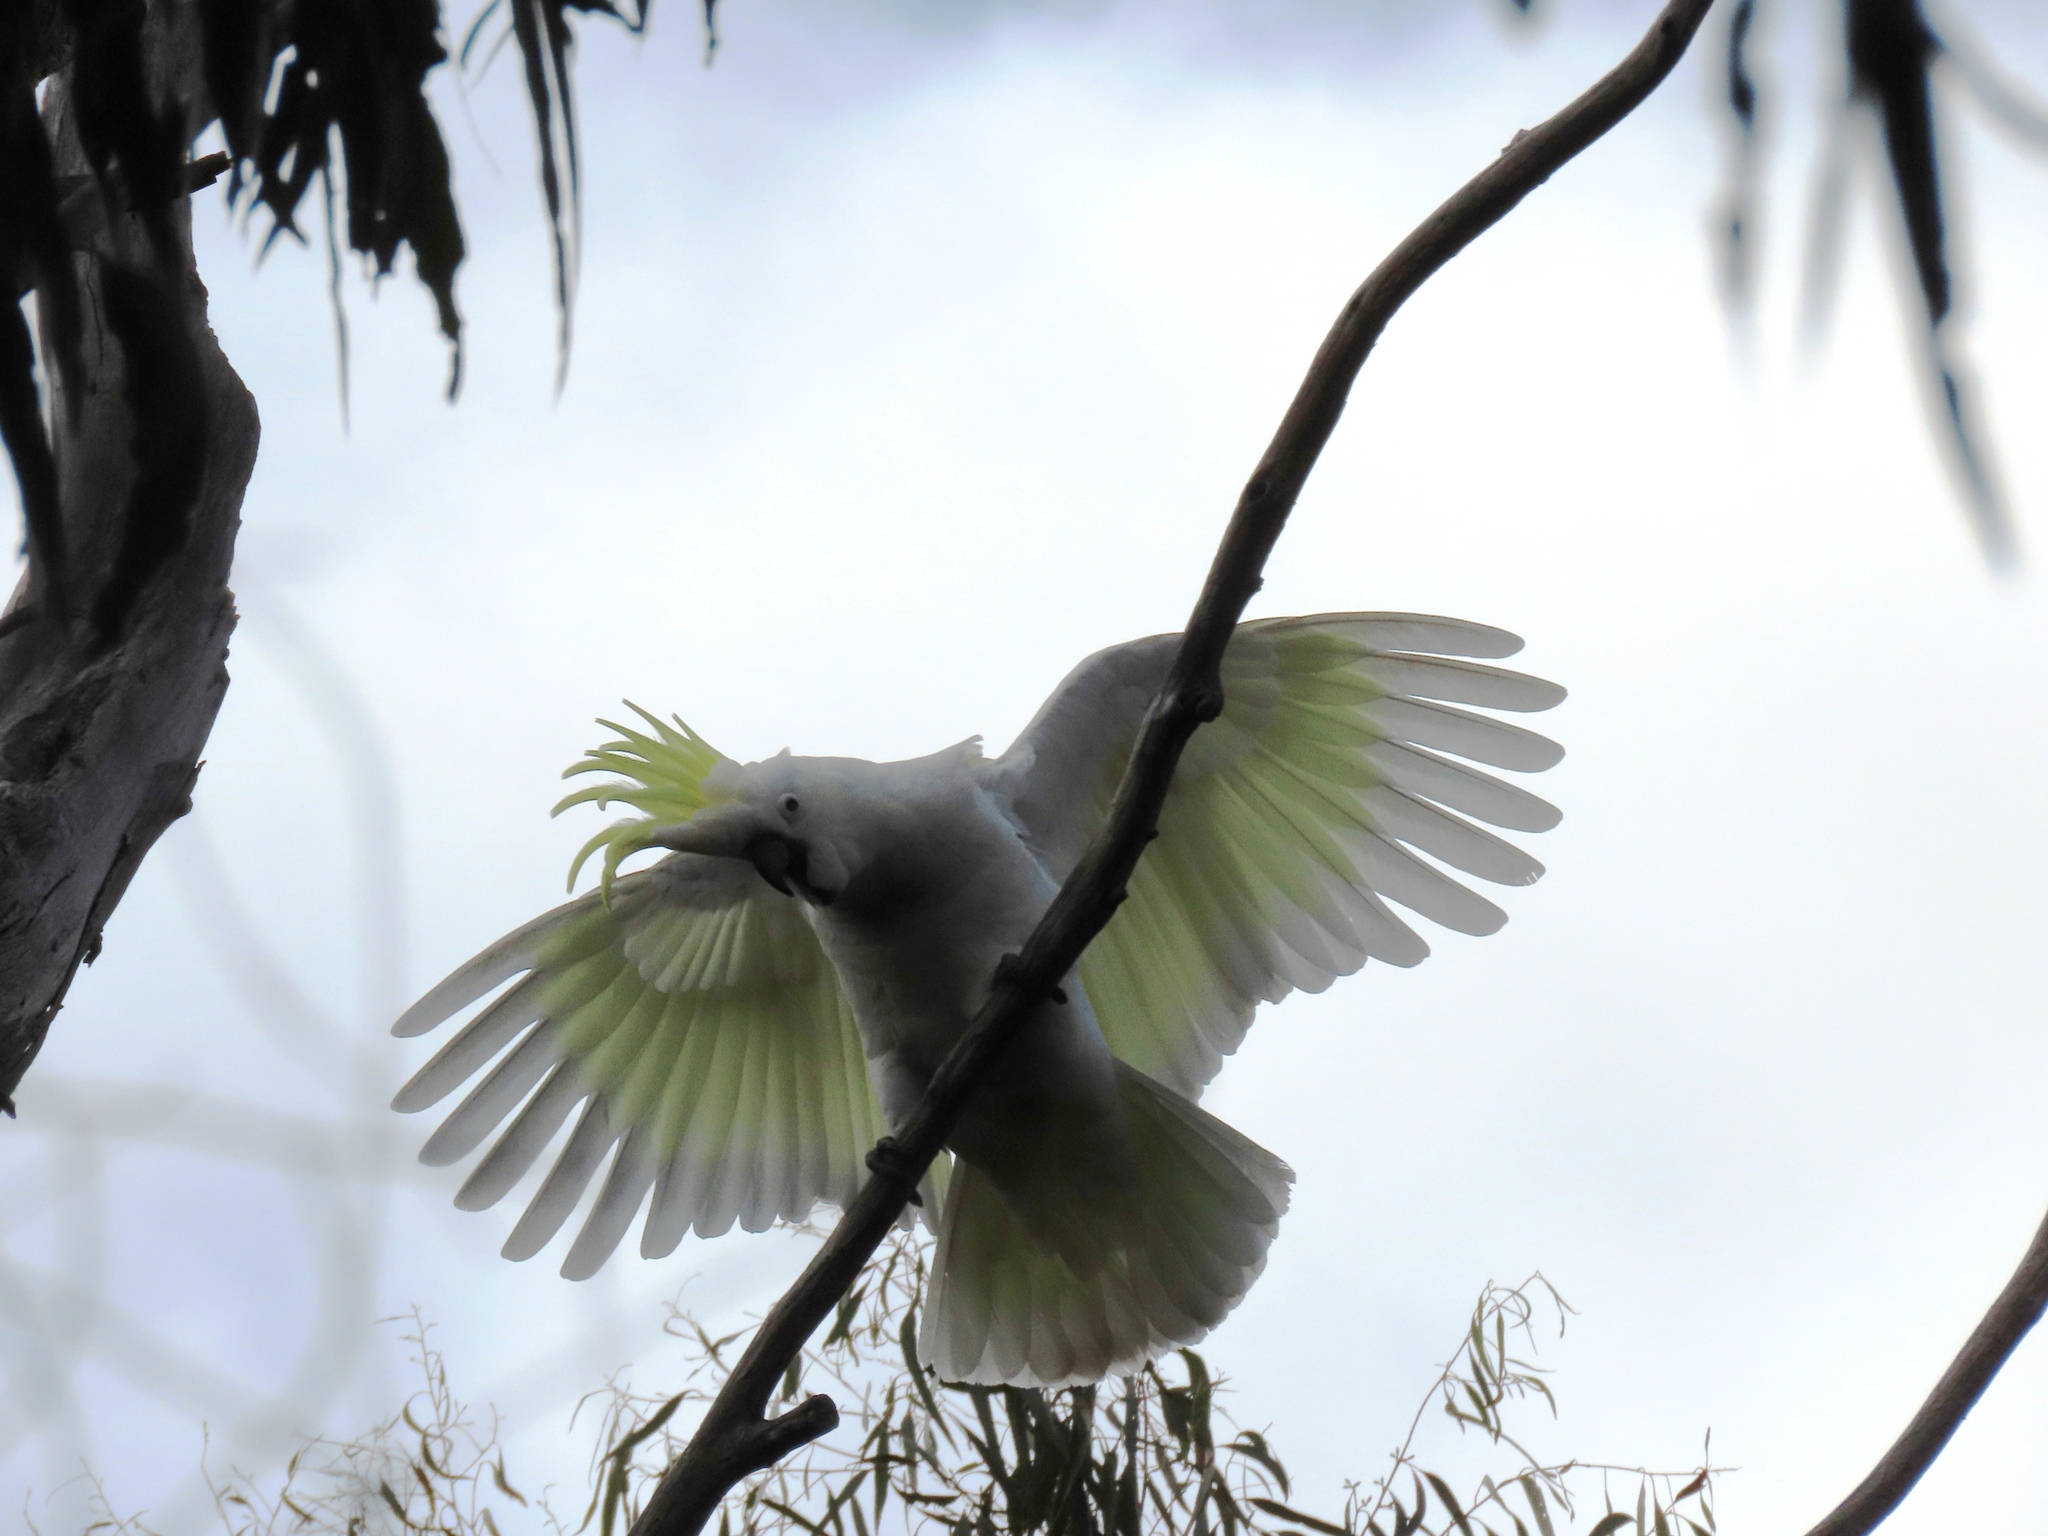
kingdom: Animalia
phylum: Chordata
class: Aves
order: Psittaciformes
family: Psittacidae
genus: Cacatua
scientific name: Cacatua galerita
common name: Sulphur-crested cockatoo
